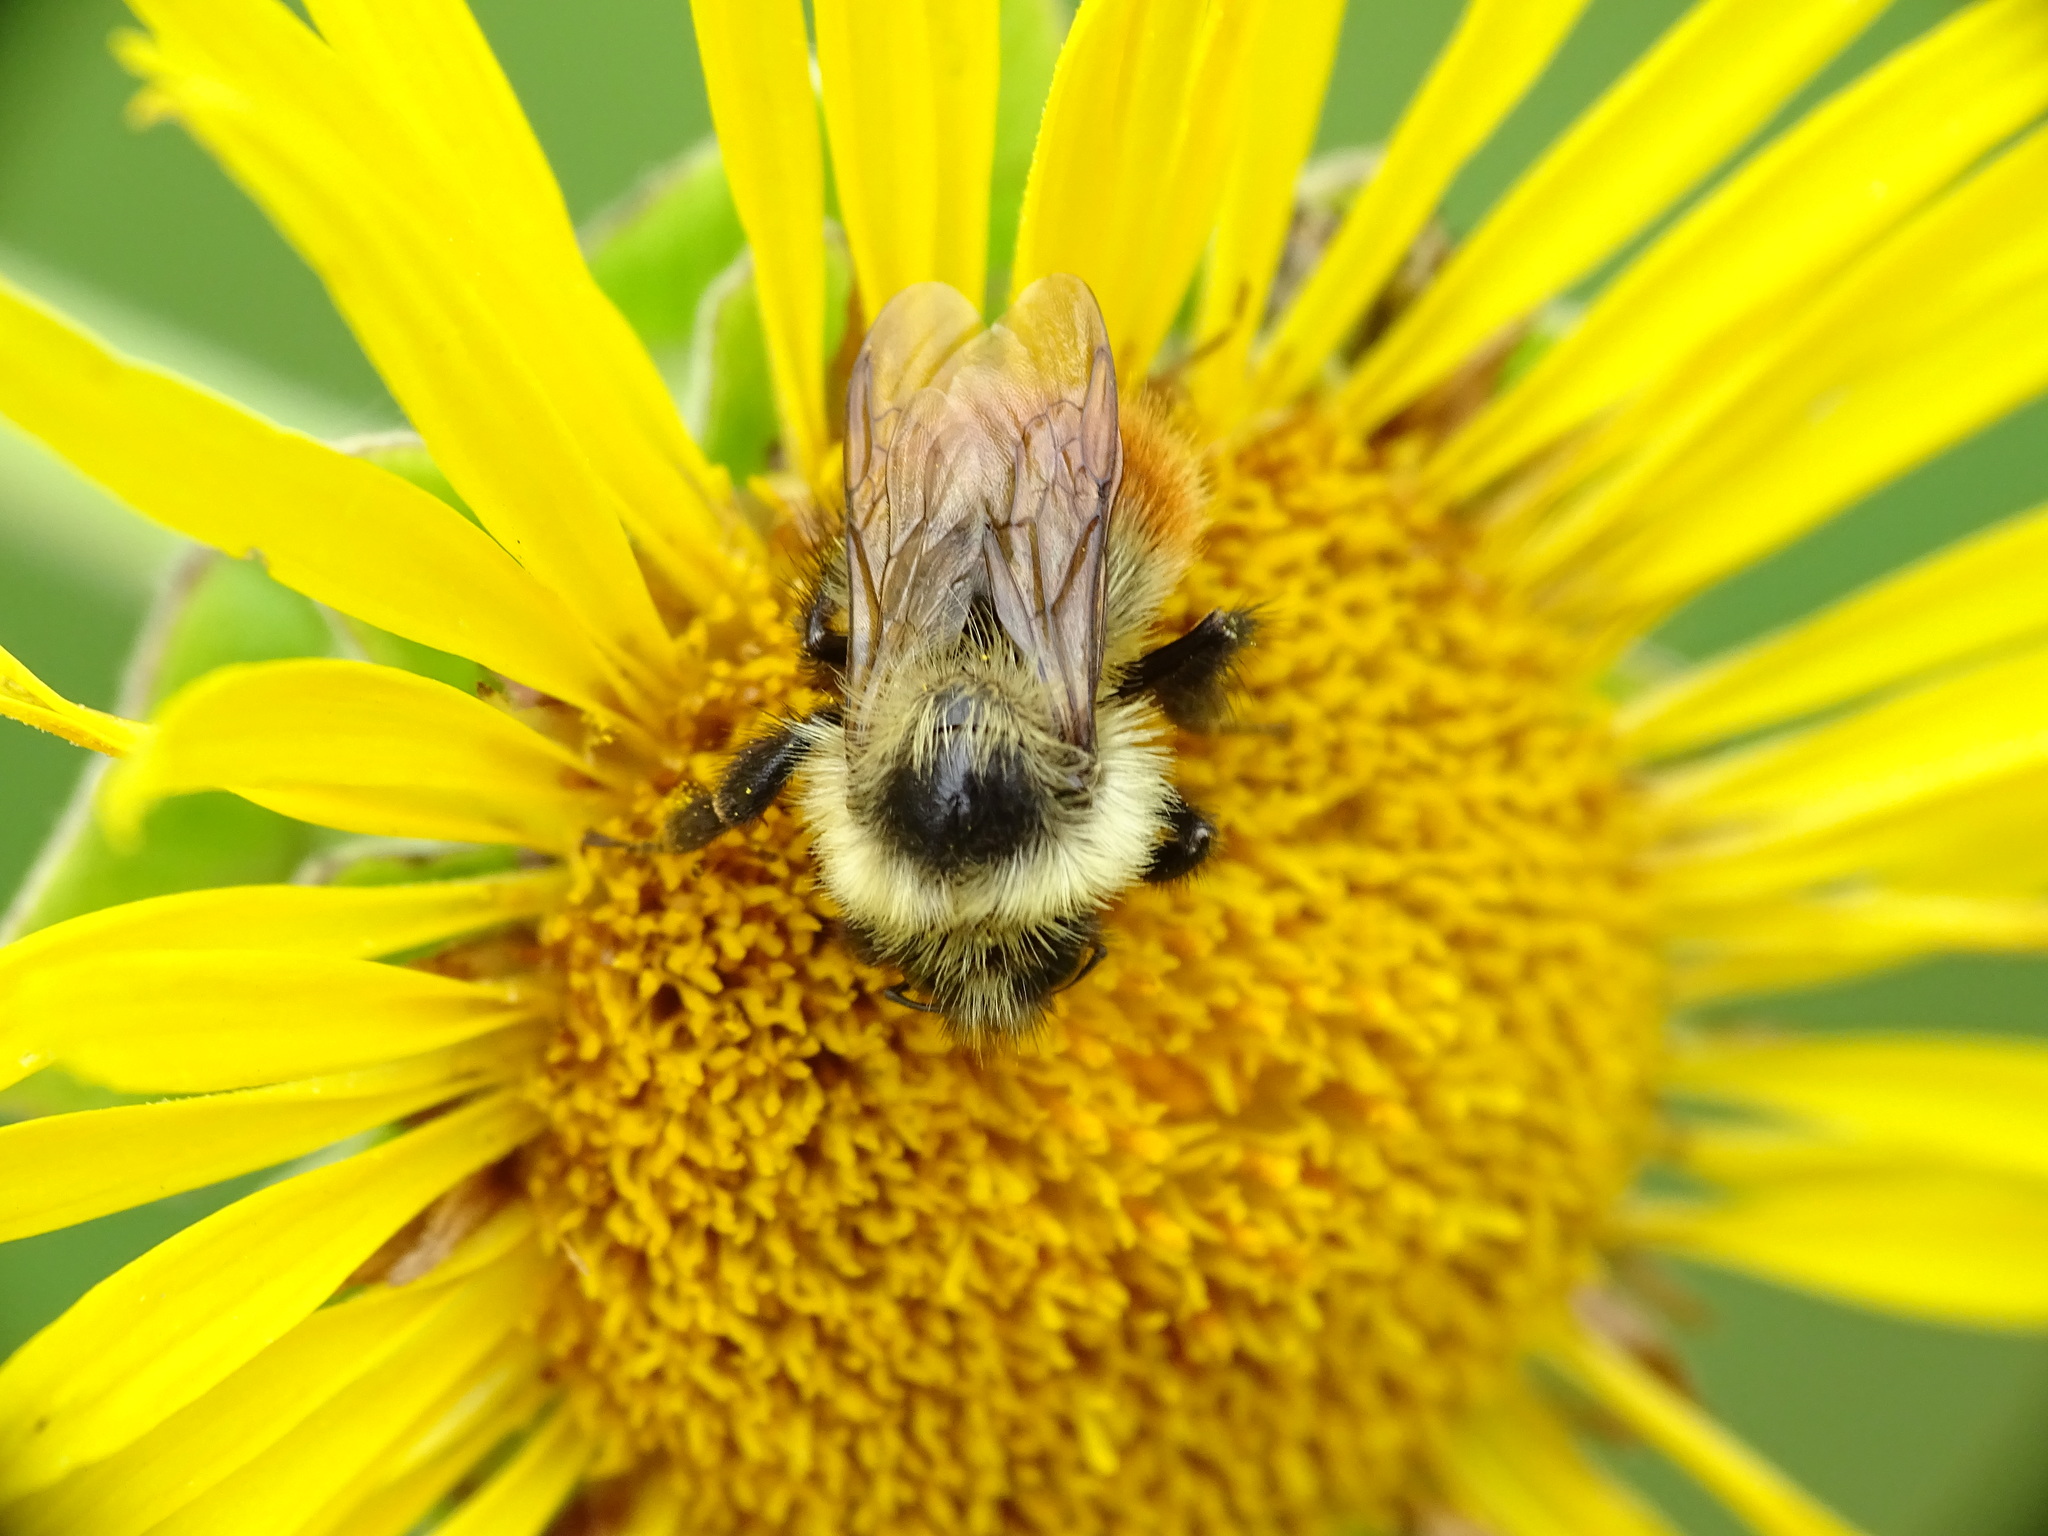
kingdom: Animalia
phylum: Arthropoda
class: Insecta
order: Hymenoptera
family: Apidae
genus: Bombus
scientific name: Bombus rufocinctus
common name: Red-belted bumble bee
